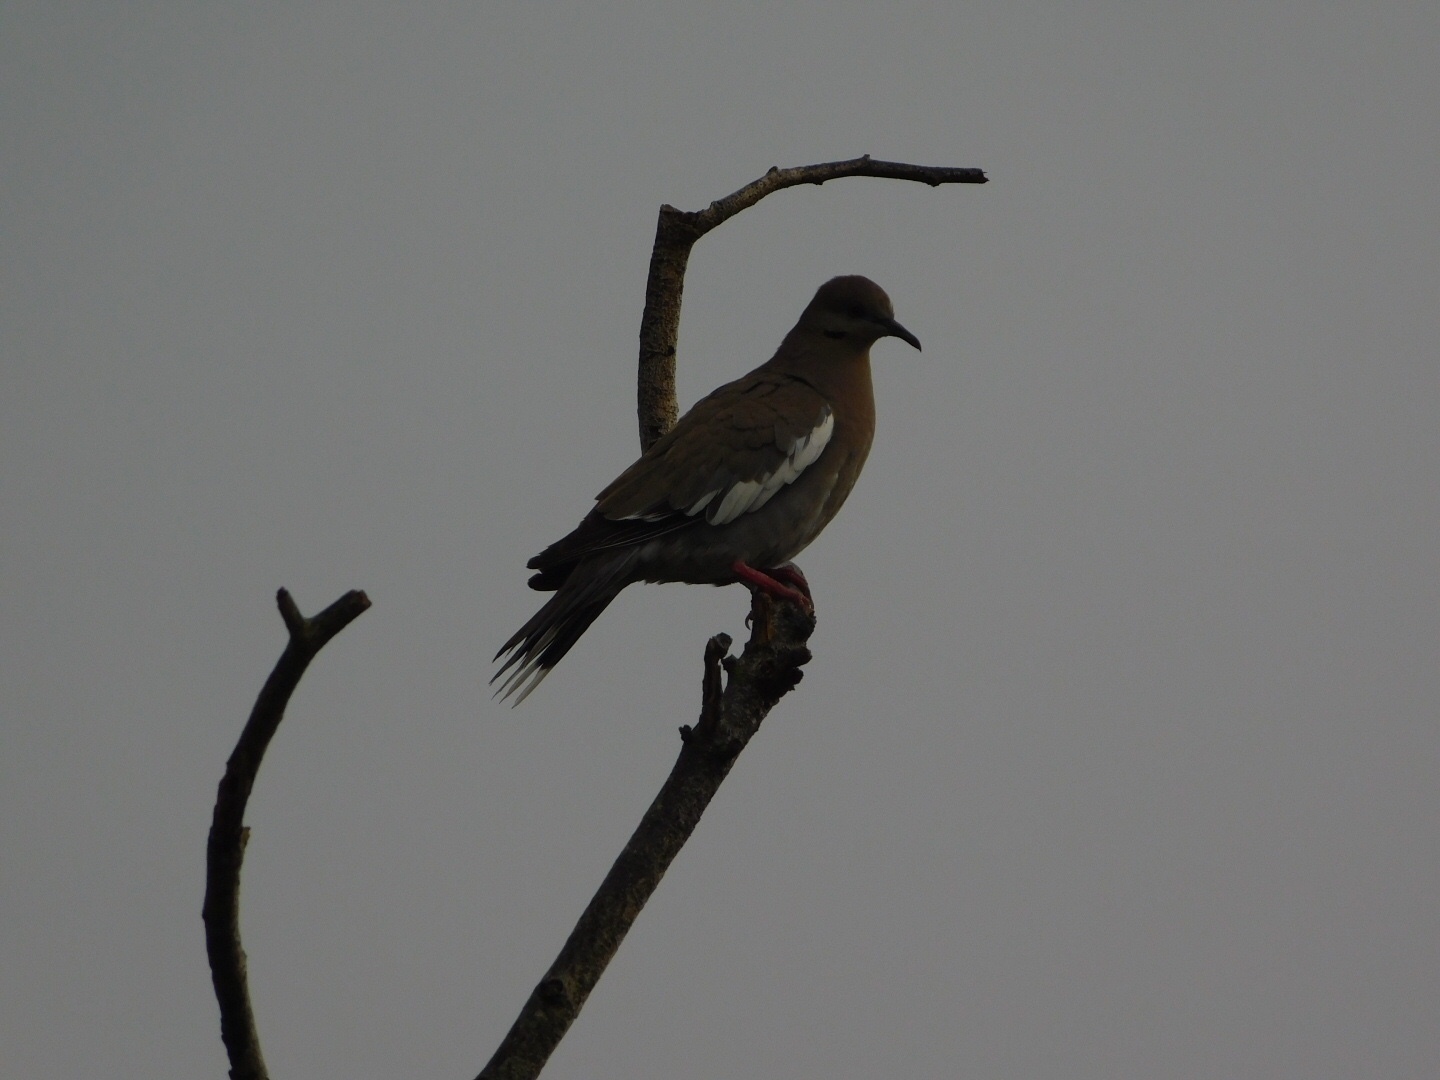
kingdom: Animalia
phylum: Chordata
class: Aves
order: Columbiformes
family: Columbidae
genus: Zenaida
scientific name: Zenaida asiatica
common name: White-winged dove
